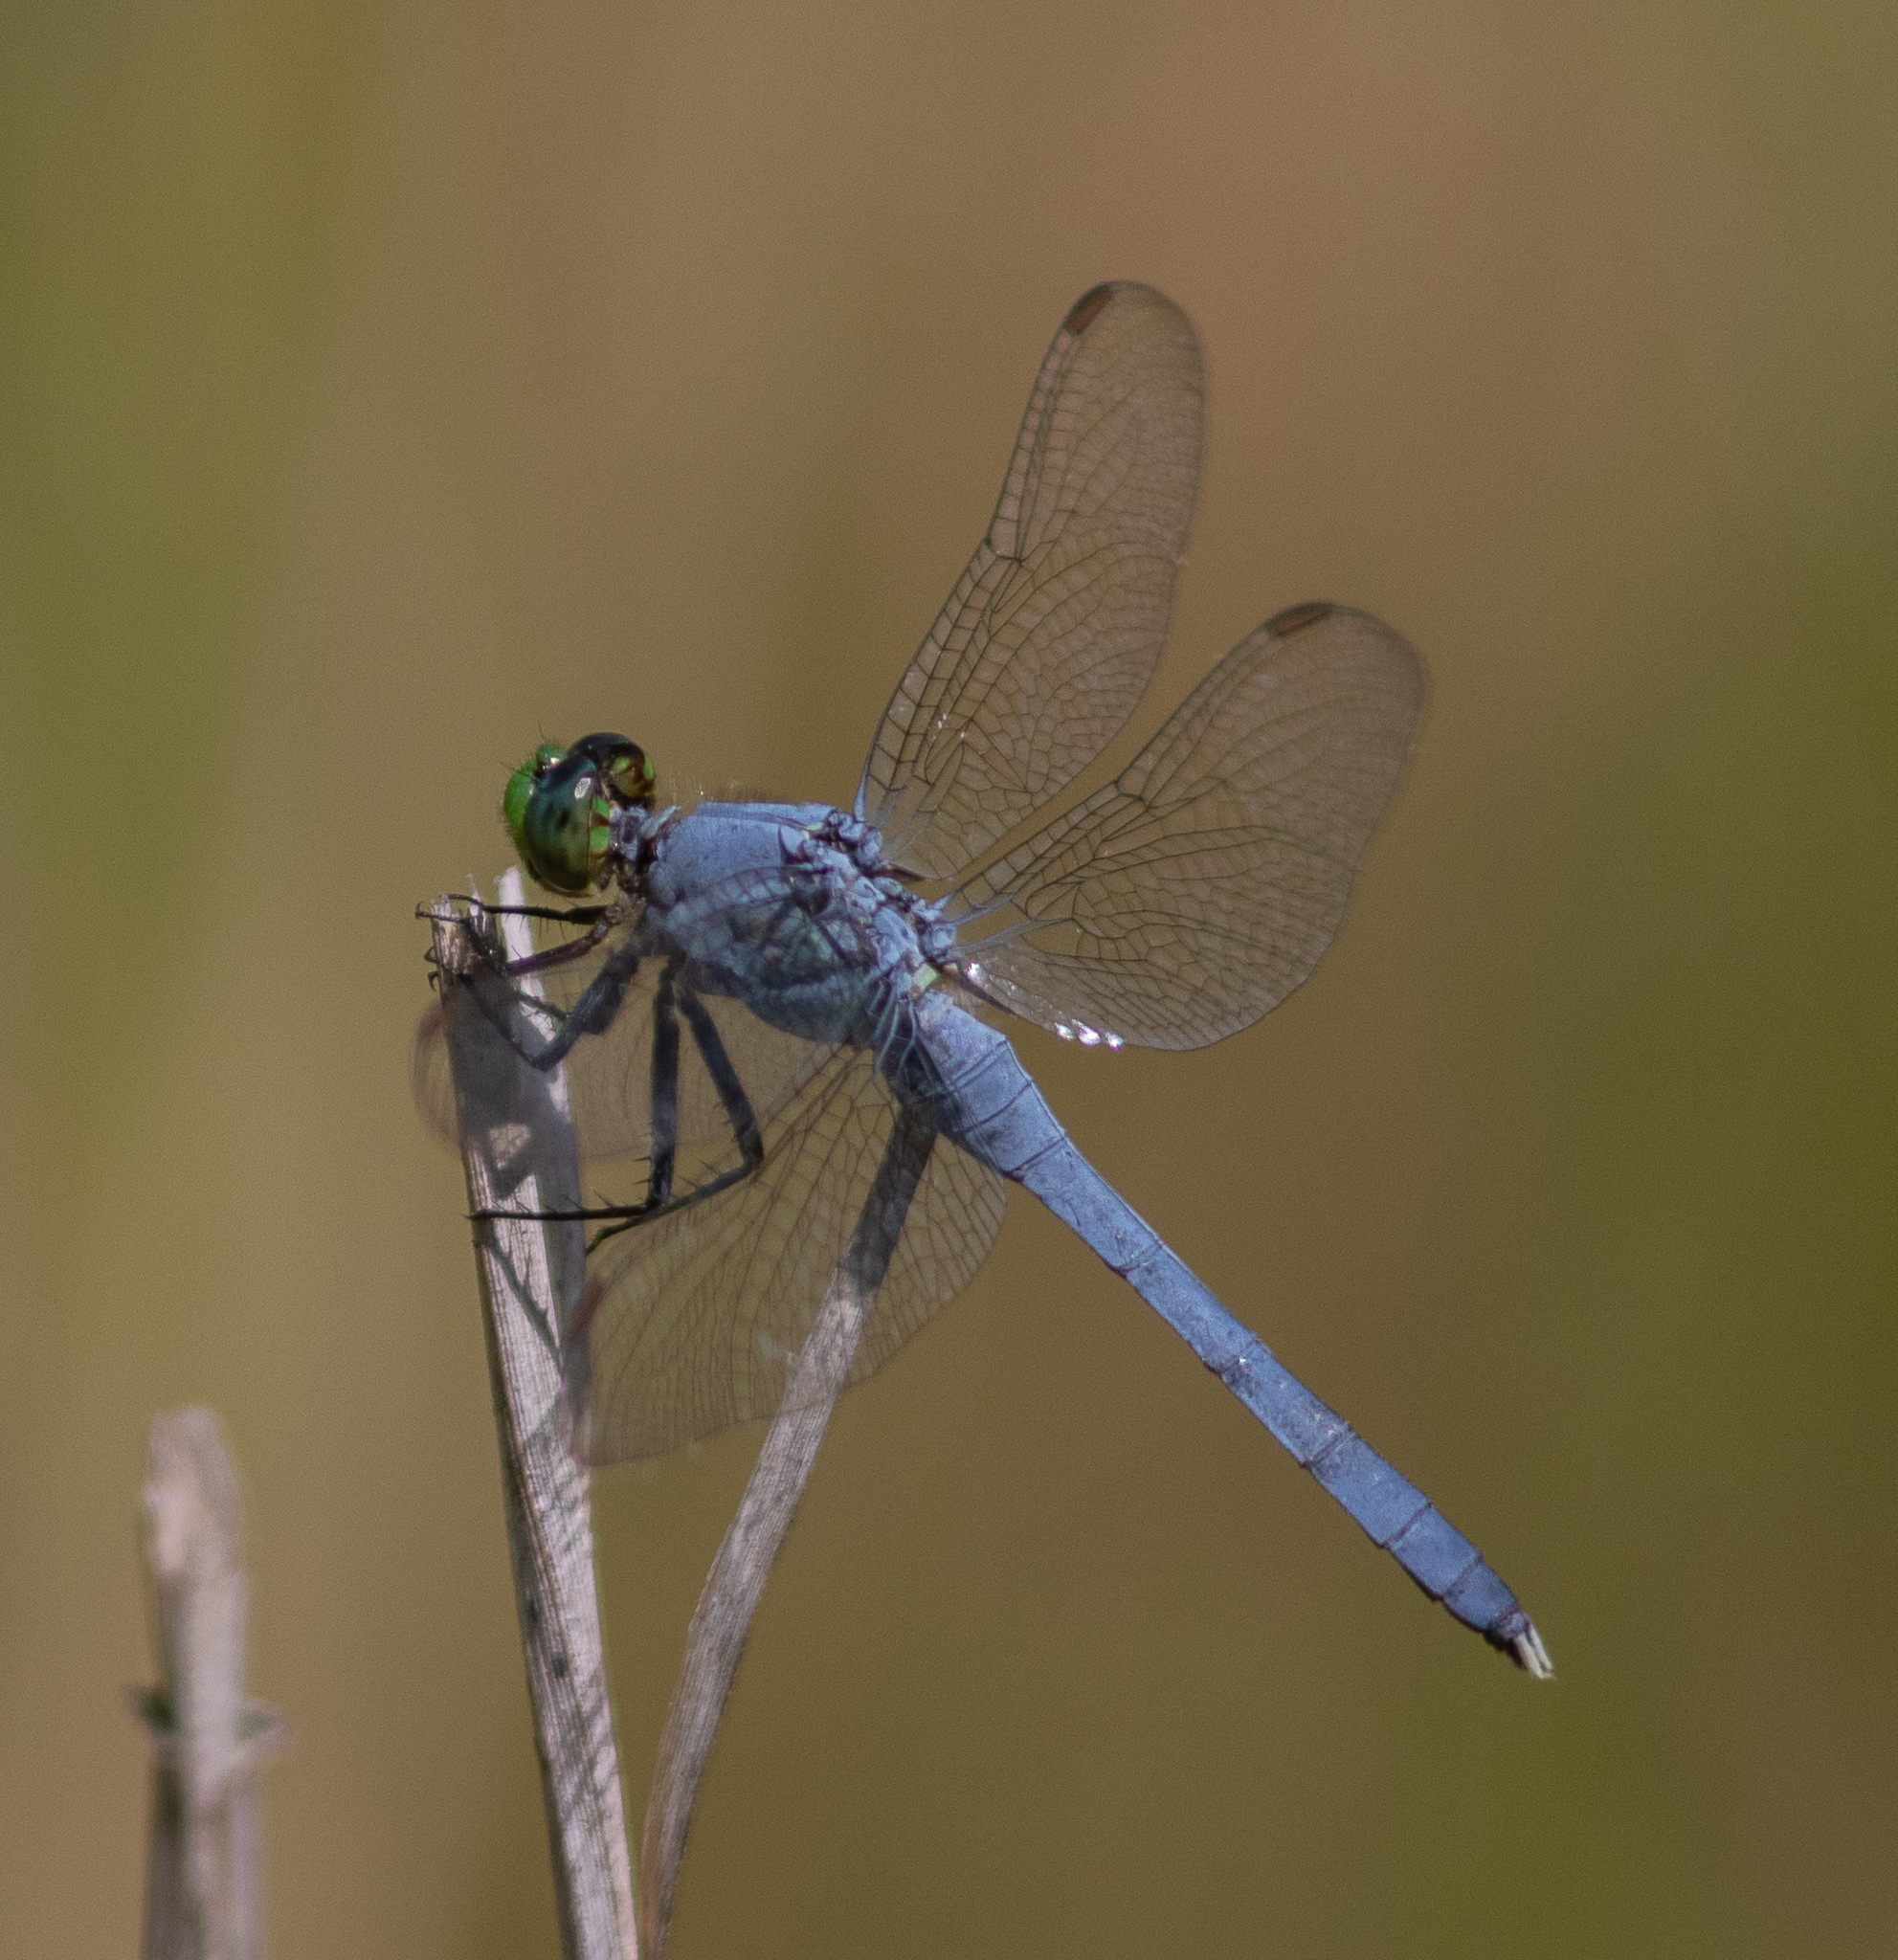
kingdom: Animalia
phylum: Arthropoda
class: Insecta
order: Odonata
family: Libellulidae
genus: Erythemis
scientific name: Erythemis simplicicollis
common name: Eastern pondhawk
